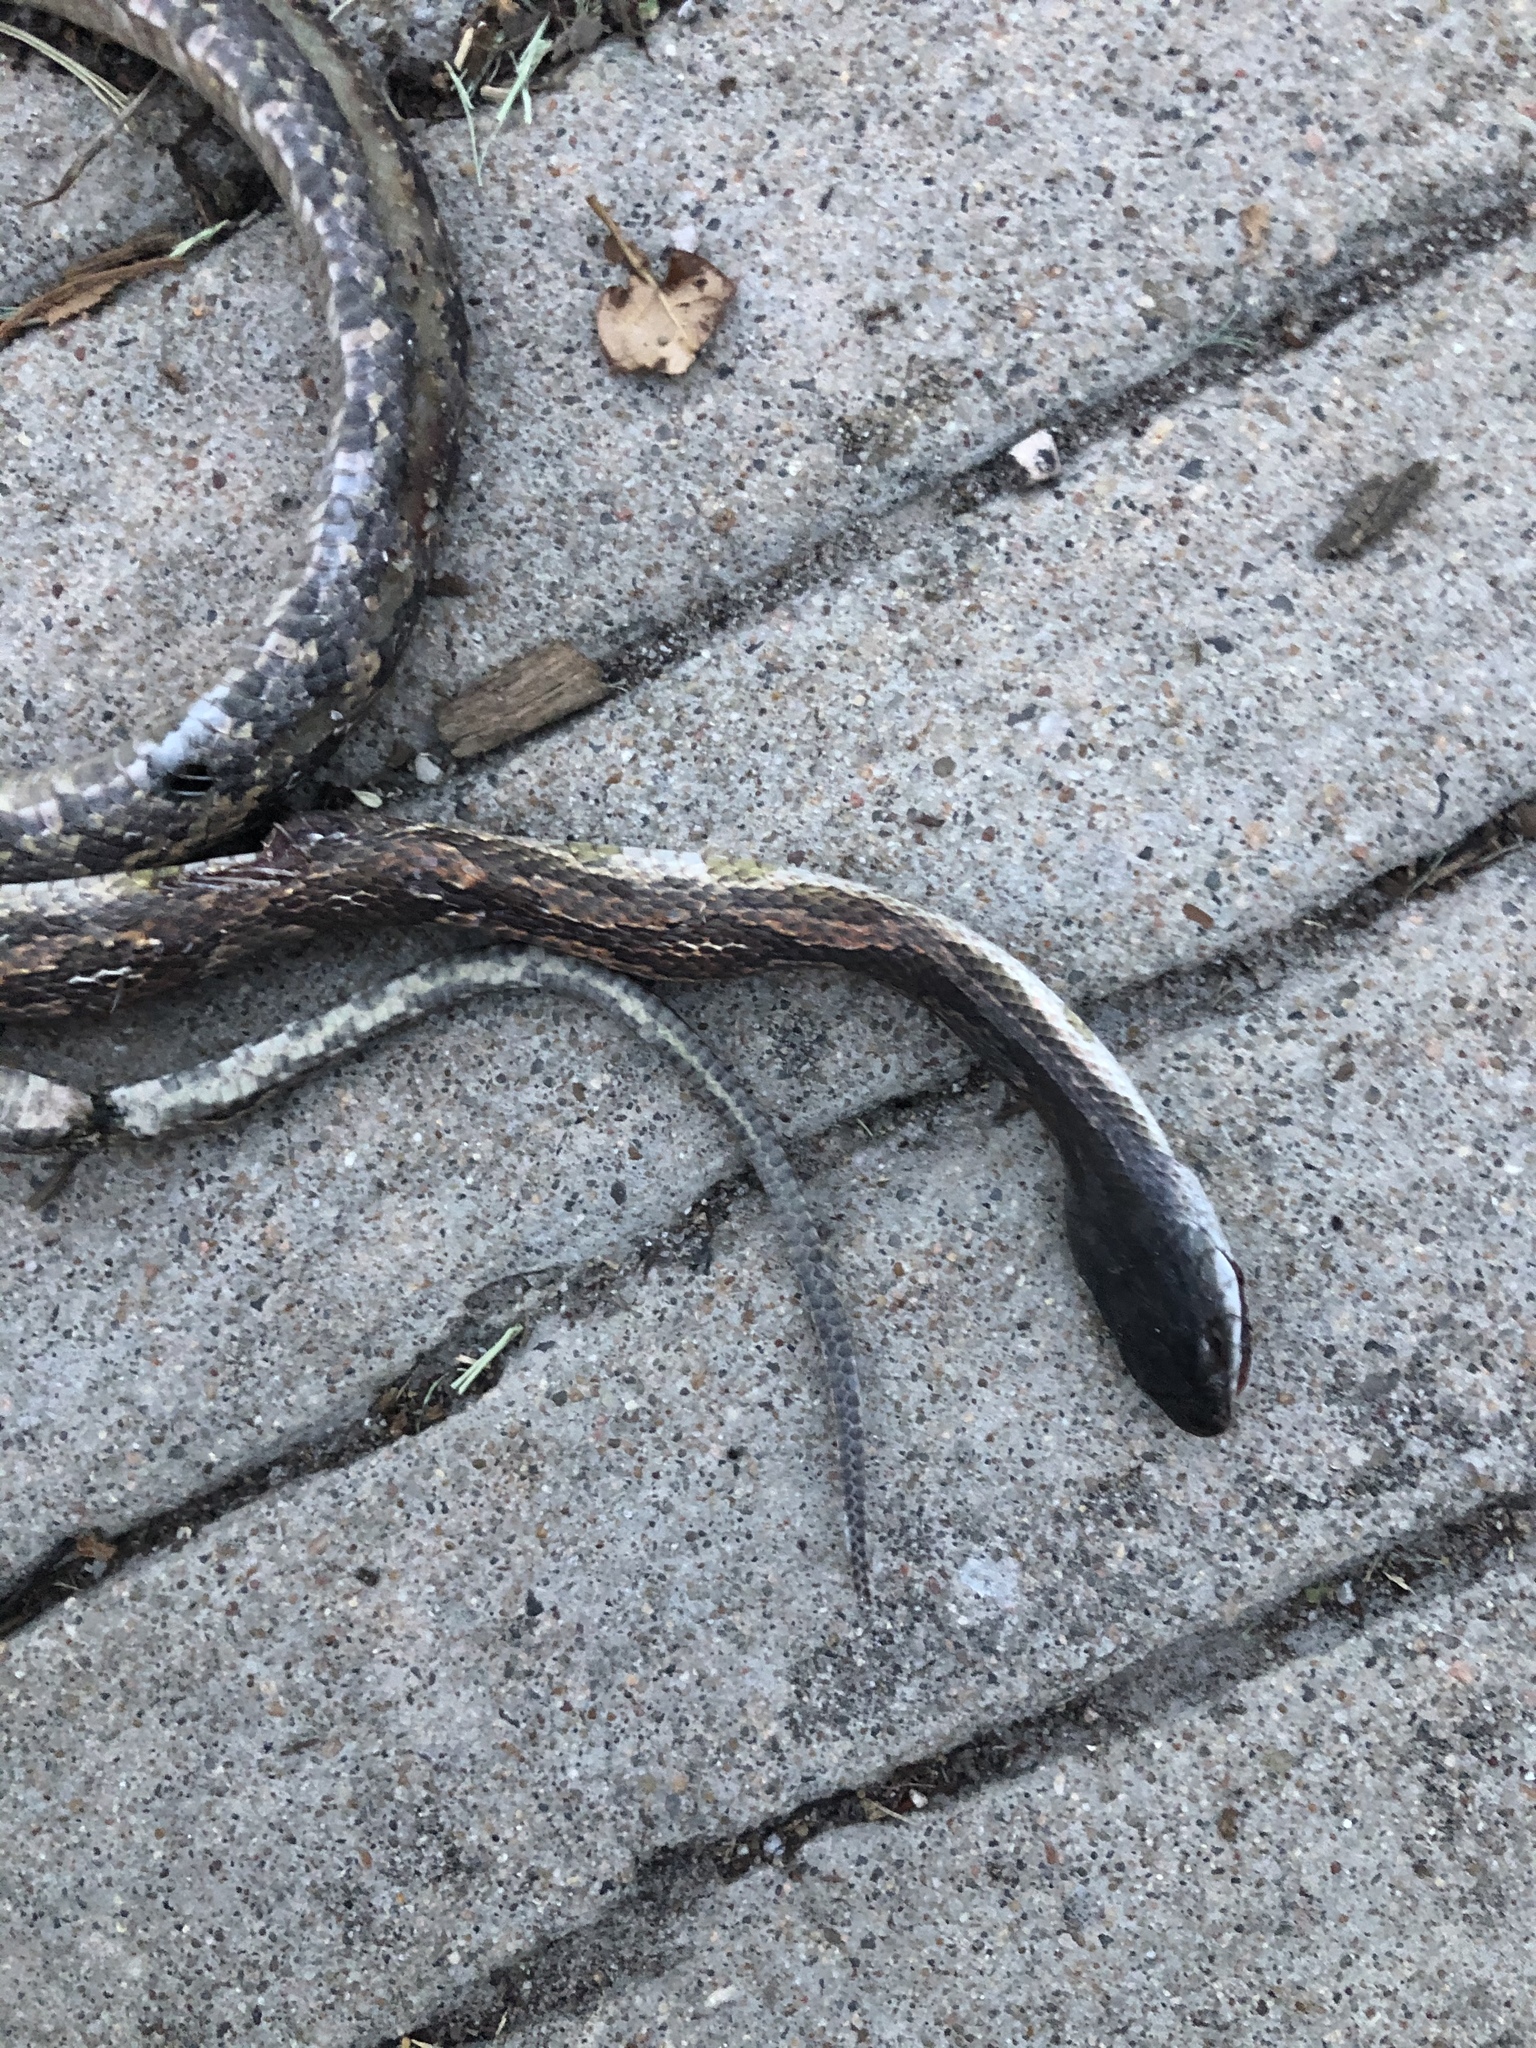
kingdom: Animalia
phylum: Chordata
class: Squamata
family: Colubridae
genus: Pantherophis
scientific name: Pantherophis obsoletus
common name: Black rat snake
